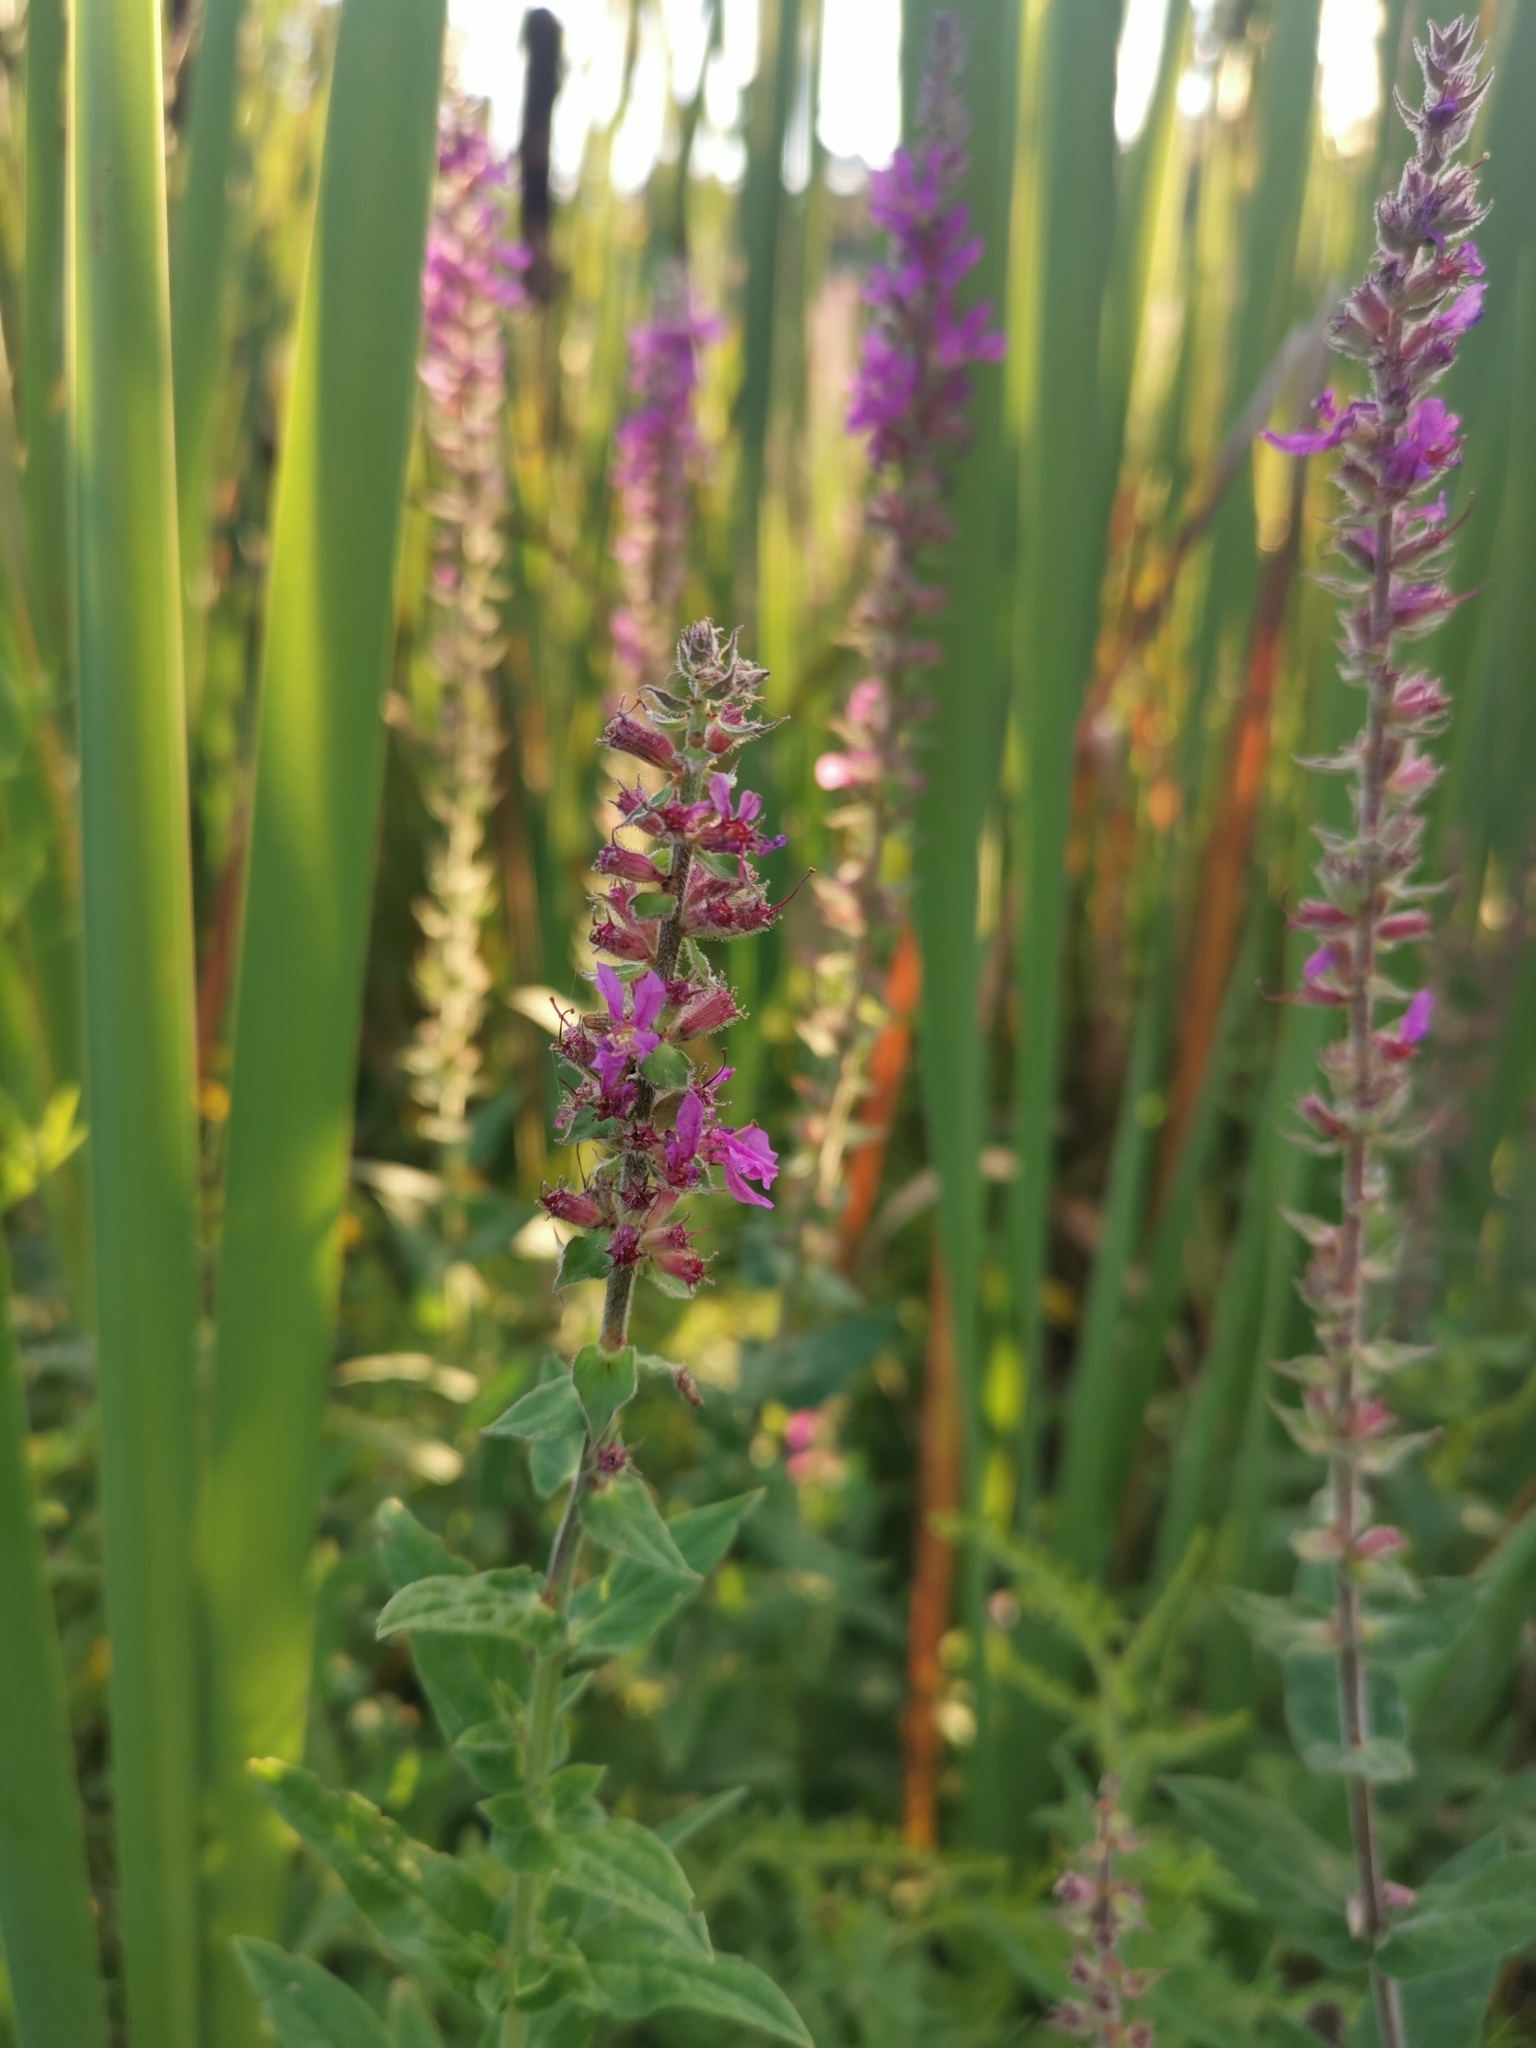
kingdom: Plantae
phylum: Tracheophyta
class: Magnoliopsida
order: Myrtales
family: Lythraceae
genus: Lythrum
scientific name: Lythrum salicaria
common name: Purple loosestrife
